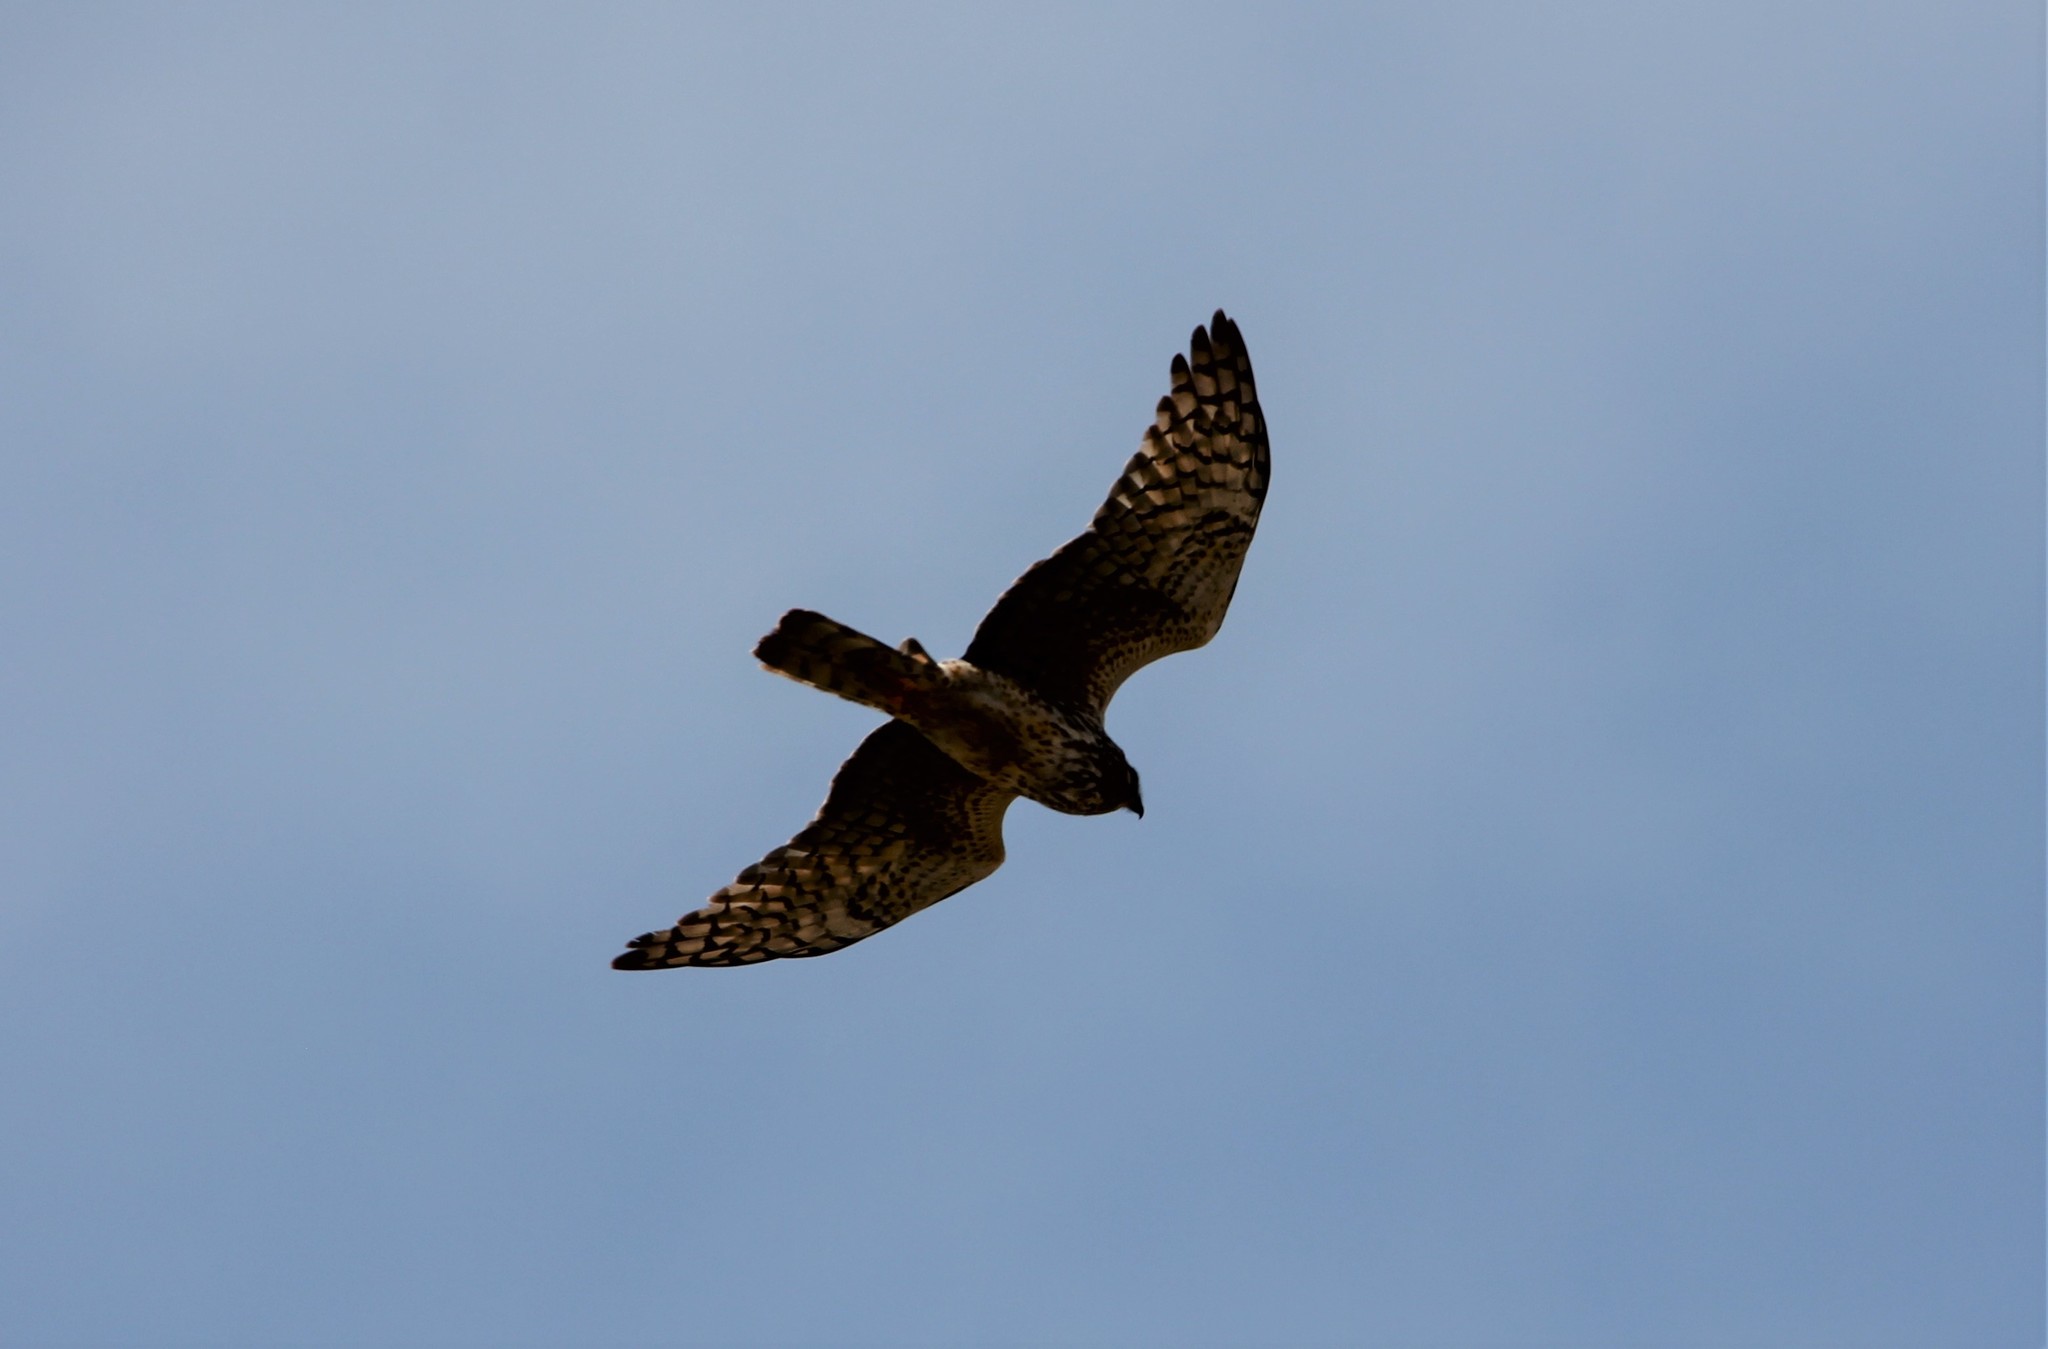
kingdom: Animalia
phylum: Chordata
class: Aves
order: Accipitriformes
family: Accipitridae
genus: Circus
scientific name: Circus cyaneus
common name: Hen harrier
